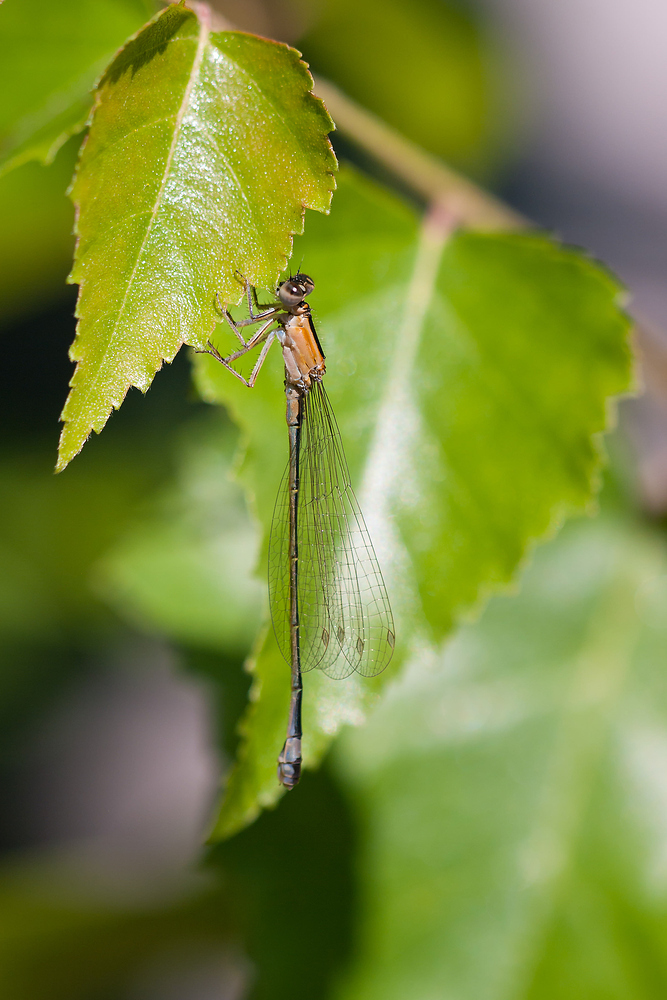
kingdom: Animalia
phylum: Arthropoda
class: Insecta
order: Odonata
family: Coenagrionidae
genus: Ischnura
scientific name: Ischnura elegans
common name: Blue-tailed damselfly
